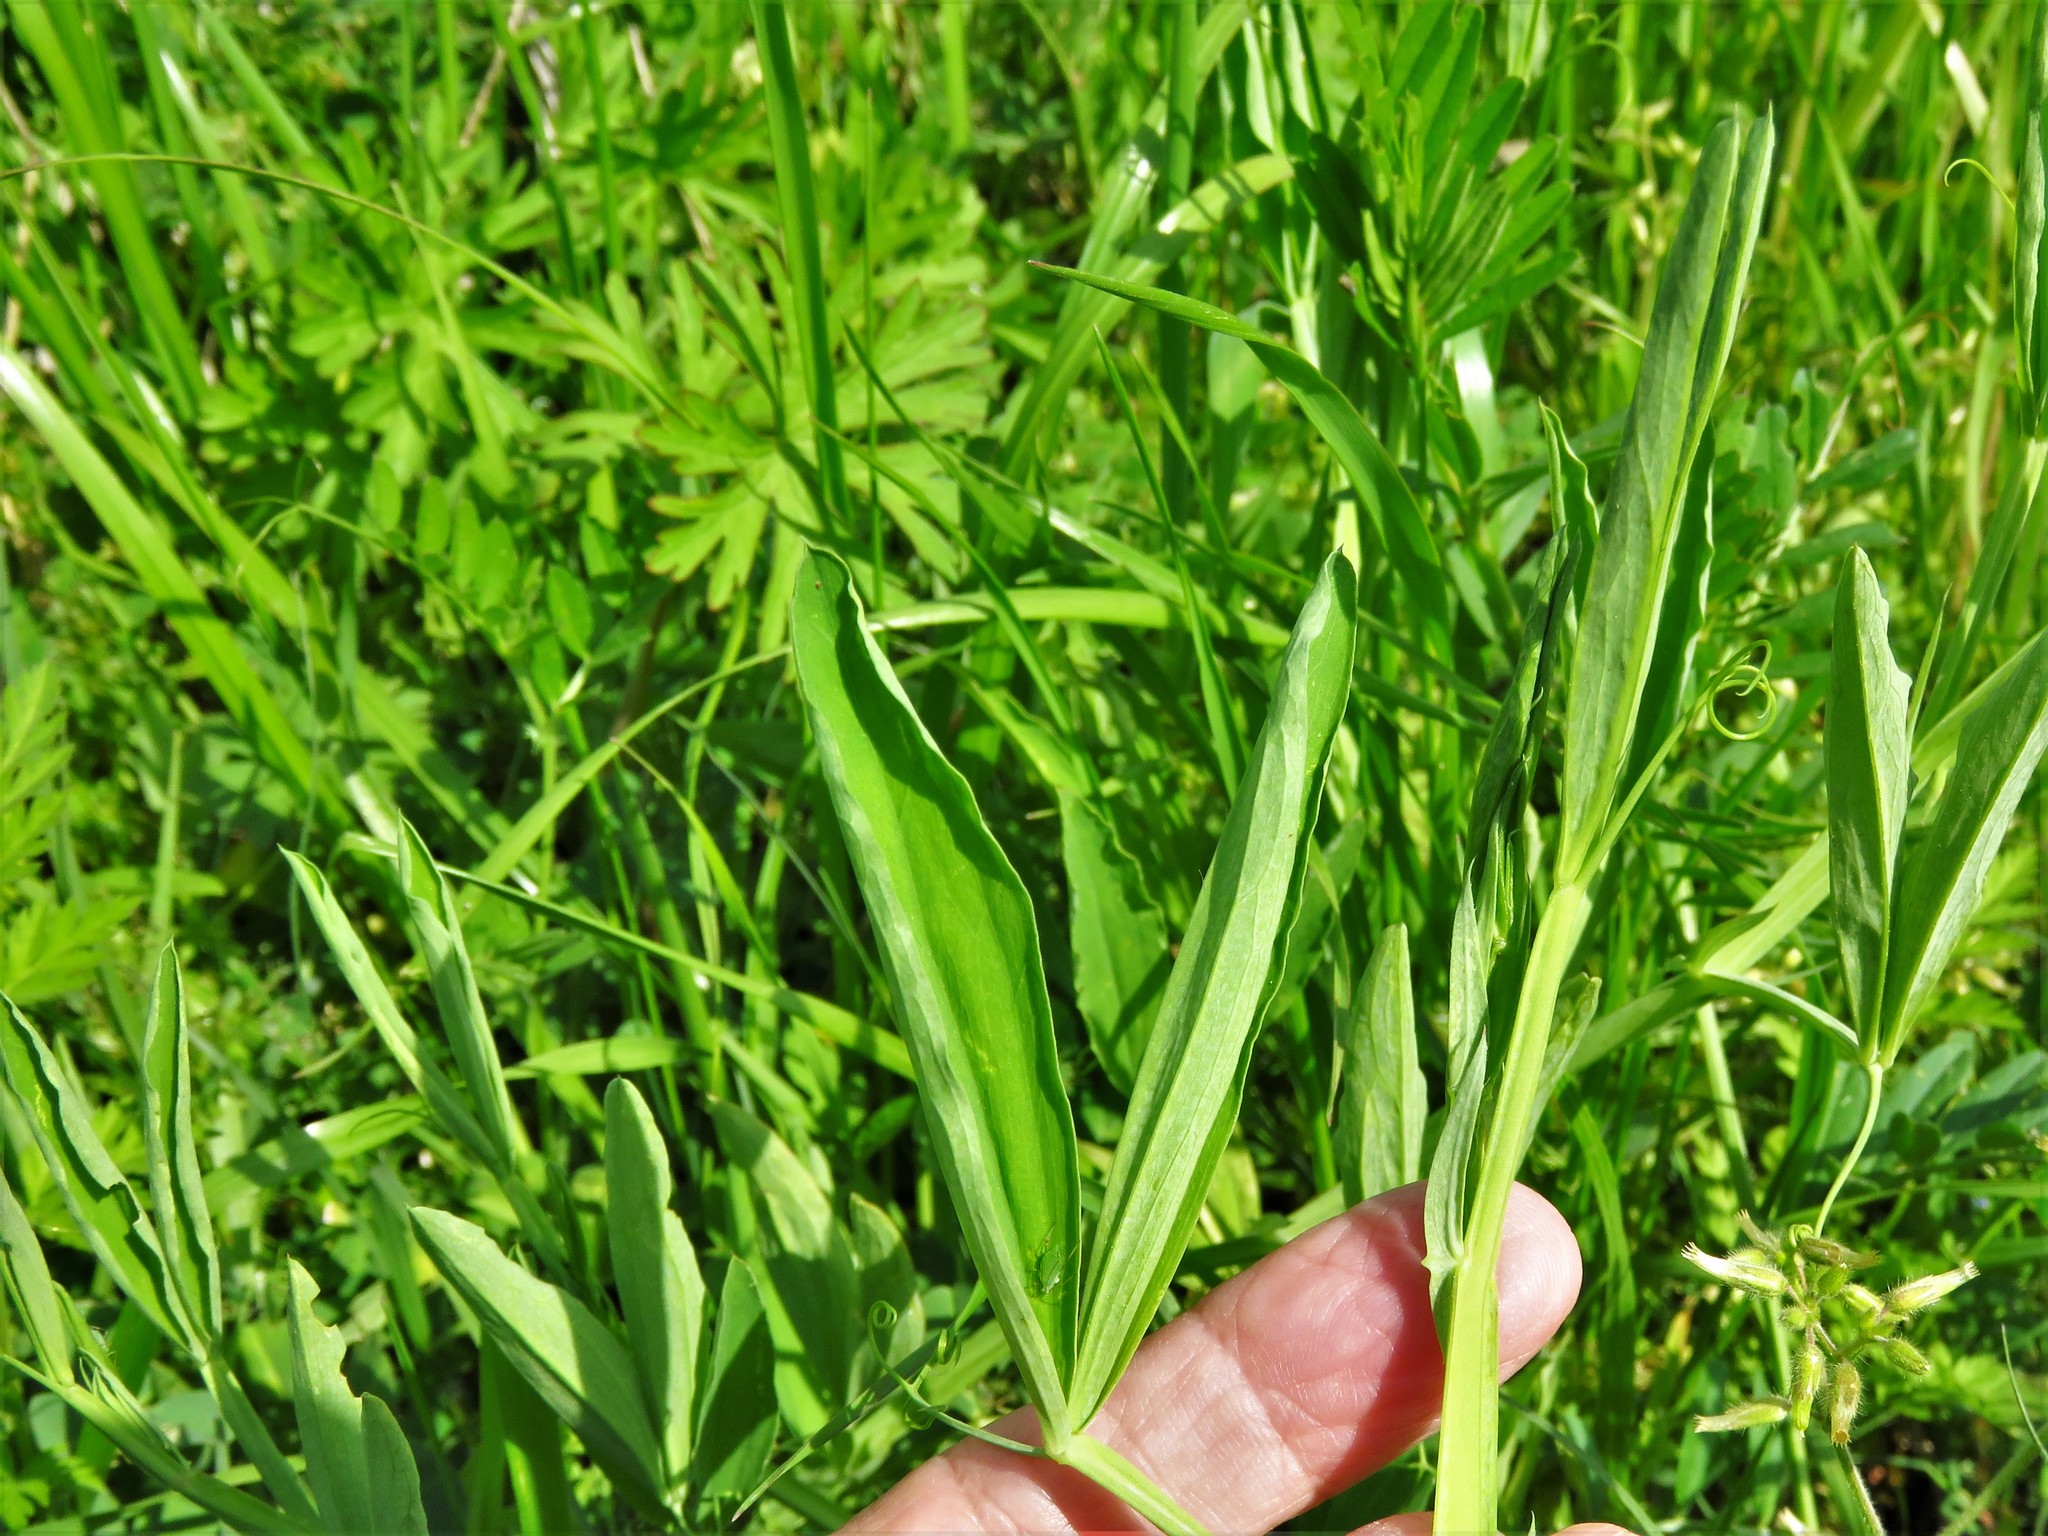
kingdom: Plantae
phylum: Tracheophyta
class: Magnoliopsida
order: Fabales
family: Fabaceae
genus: Lathyrus
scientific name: Lathyrus hirsutus
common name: Hairy vetchling
